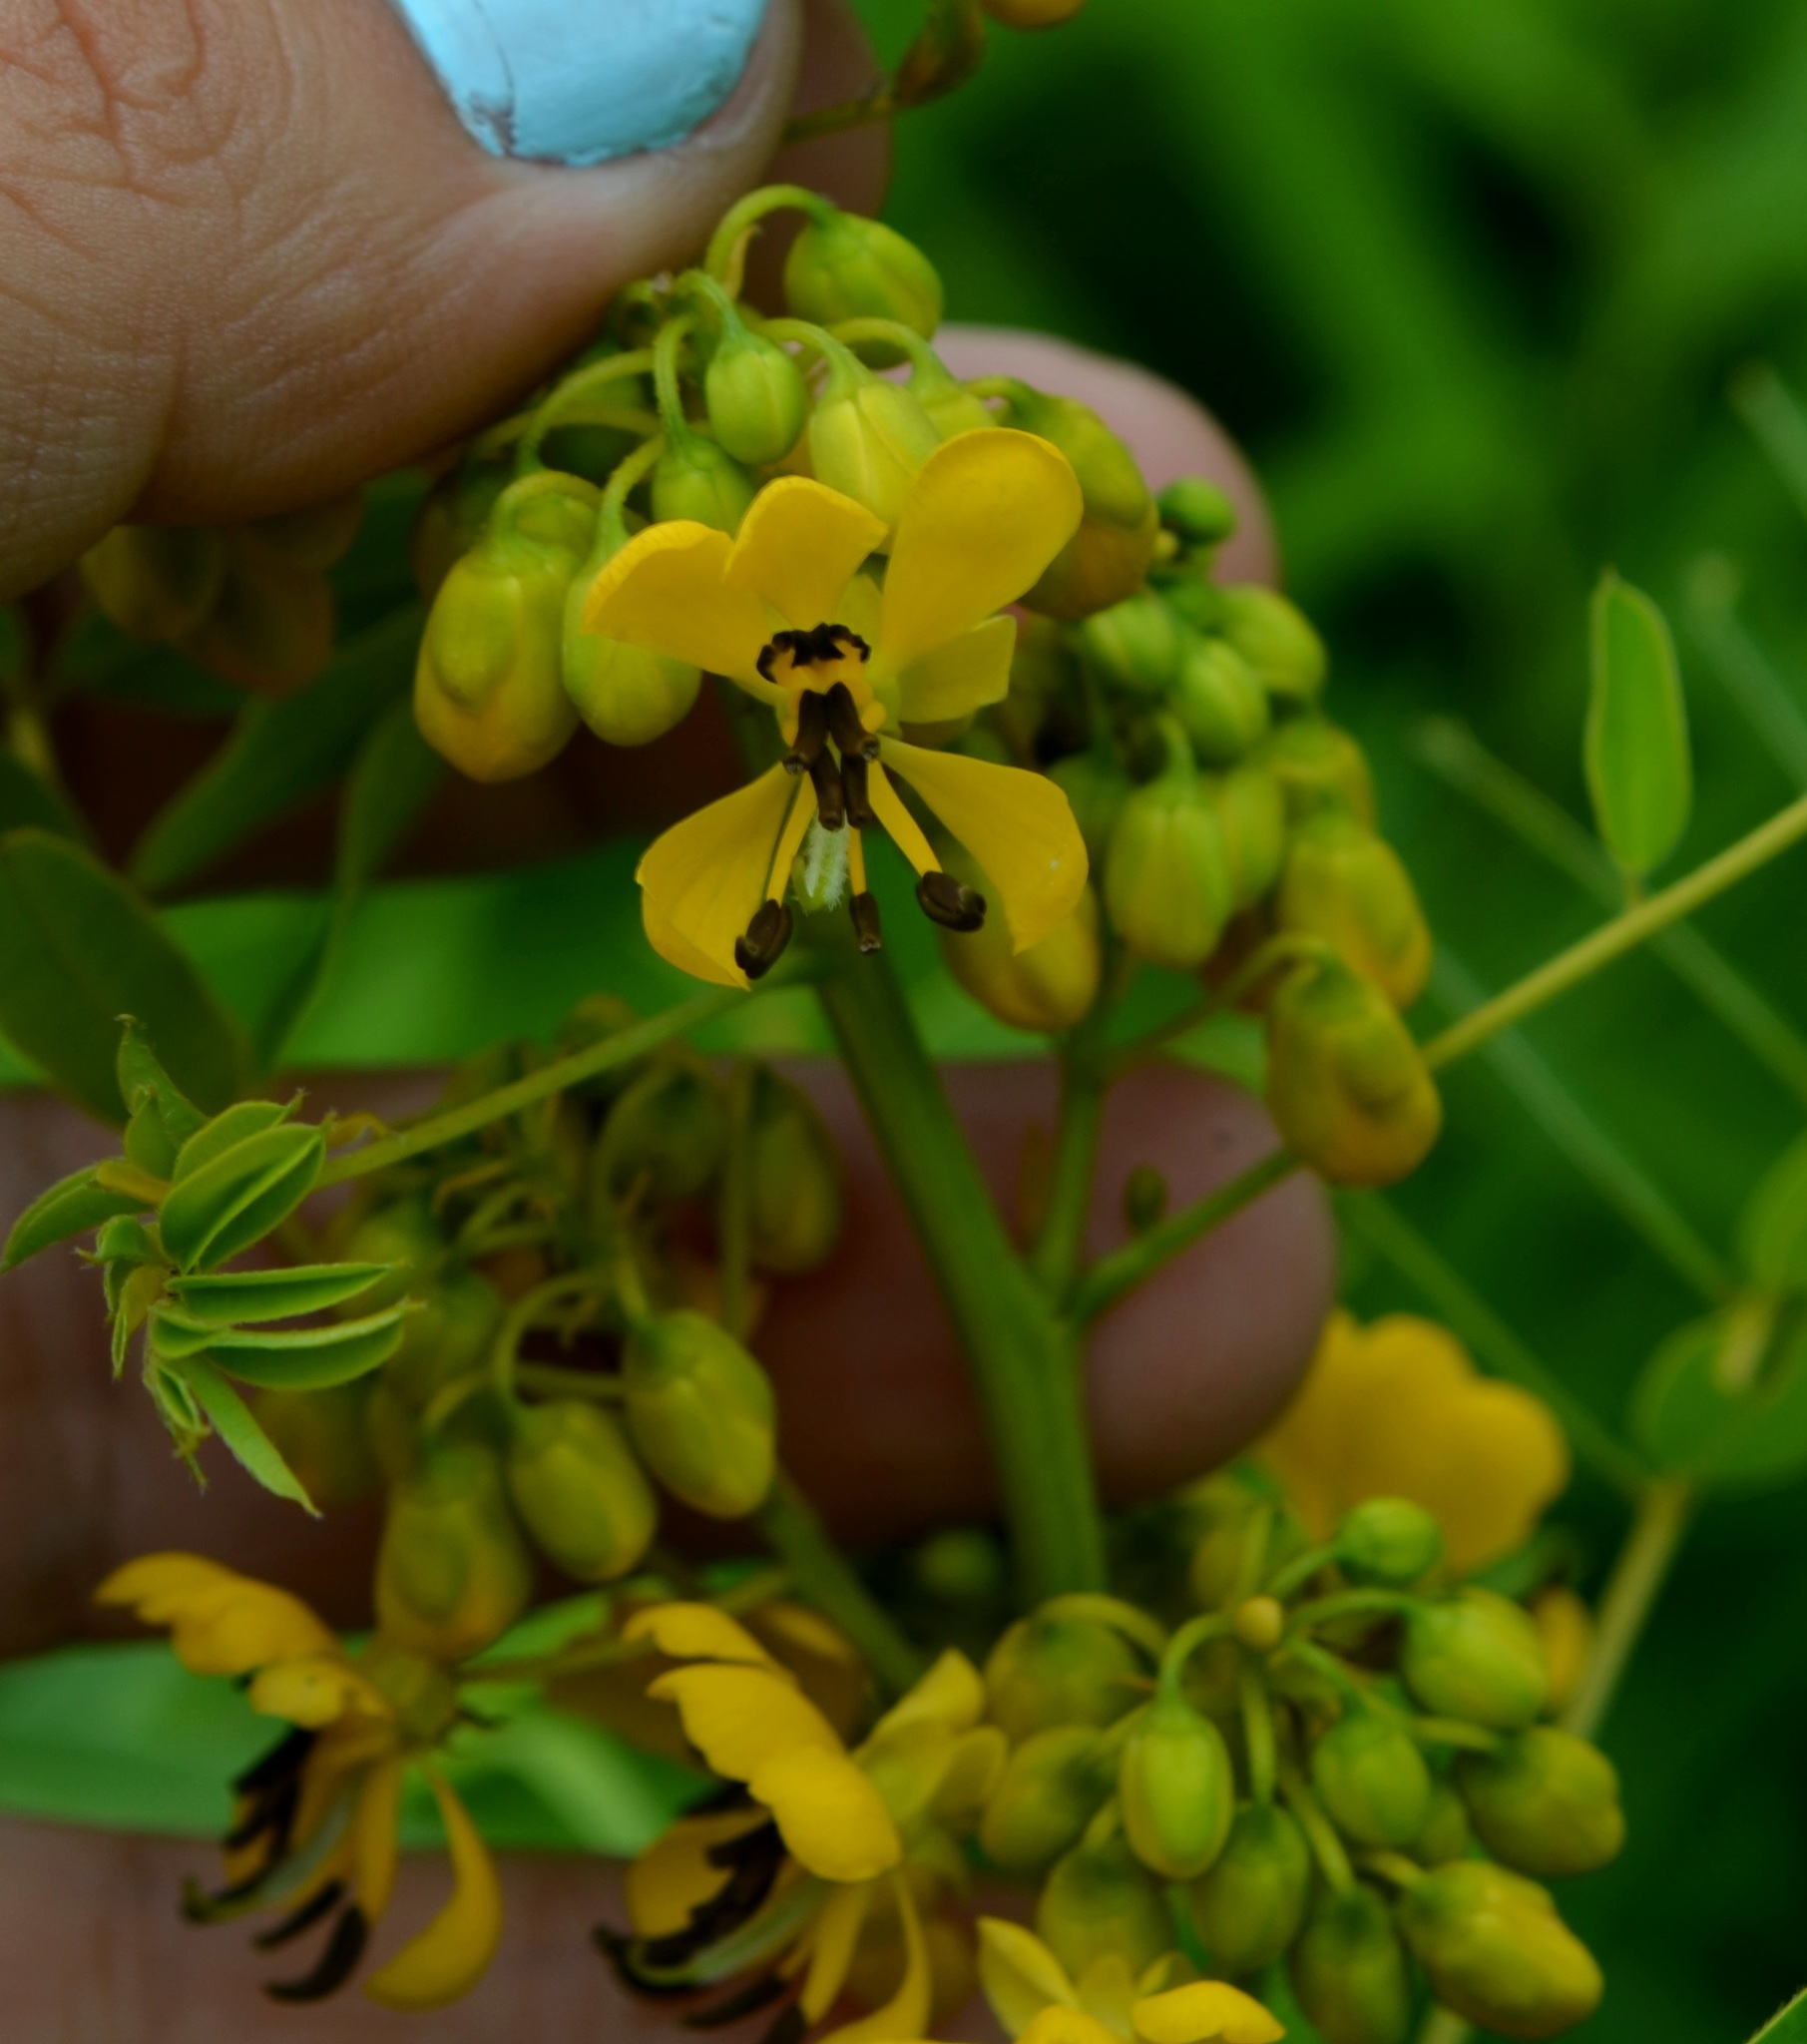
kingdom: Plantae
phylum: Tracheophyta
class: Magnoliopsida
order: Fabales
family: Fabaceae
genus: Senna
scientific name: Senna hebecarpa
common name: Wild senna
